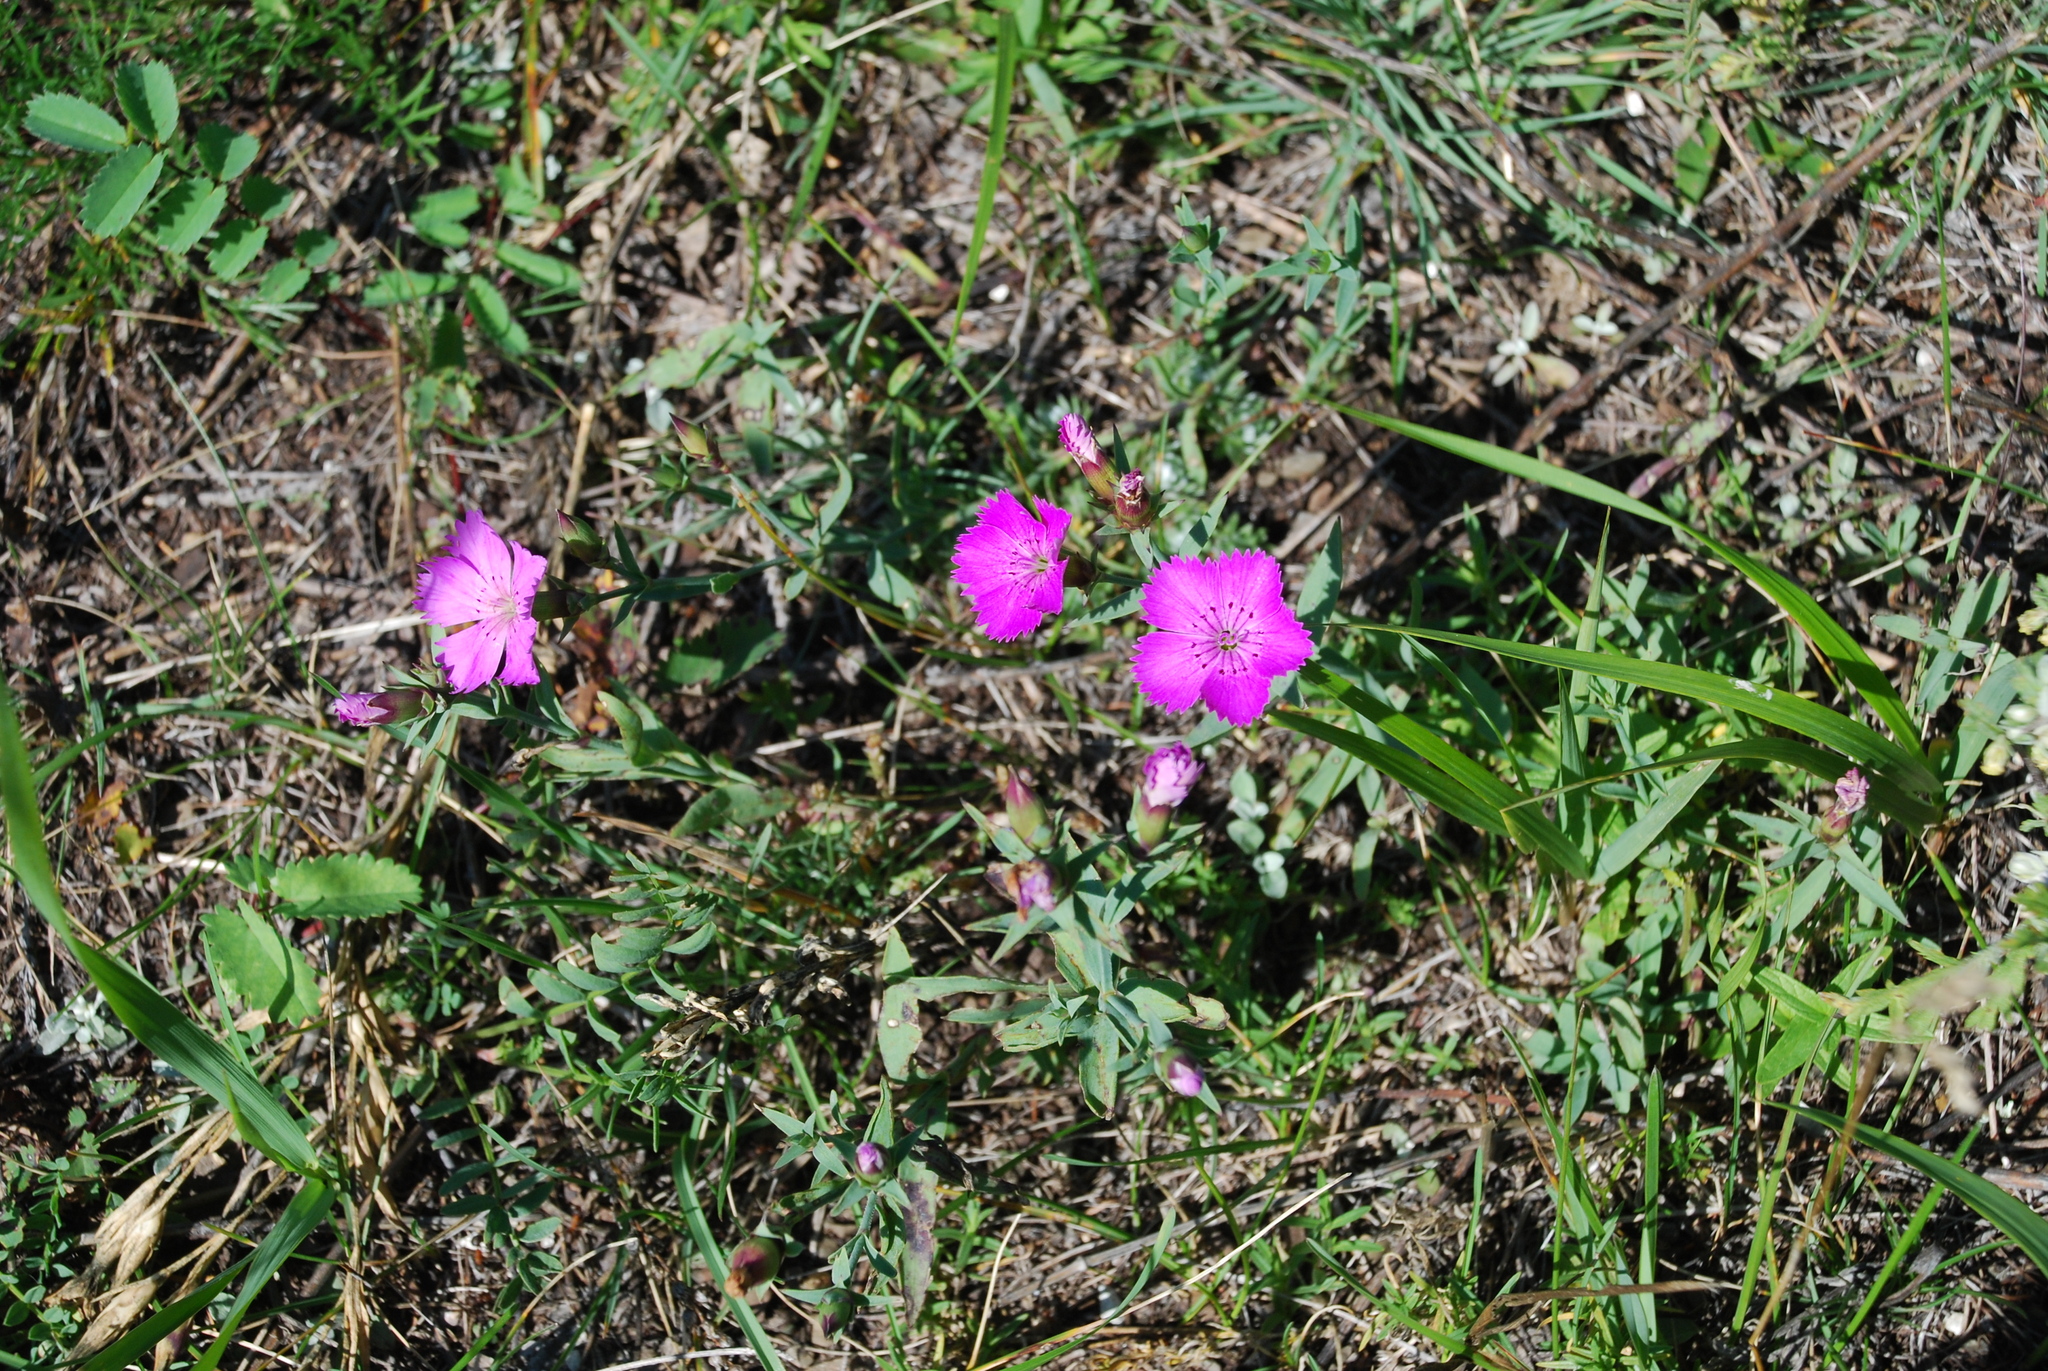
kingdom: Plantae
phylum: Tracheophyta
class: Magnoliopsida
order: Caryophyllales
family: Caryophyllaceae
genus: Dianthus
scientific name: Dianthus chinensis
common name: Rainbow pink
